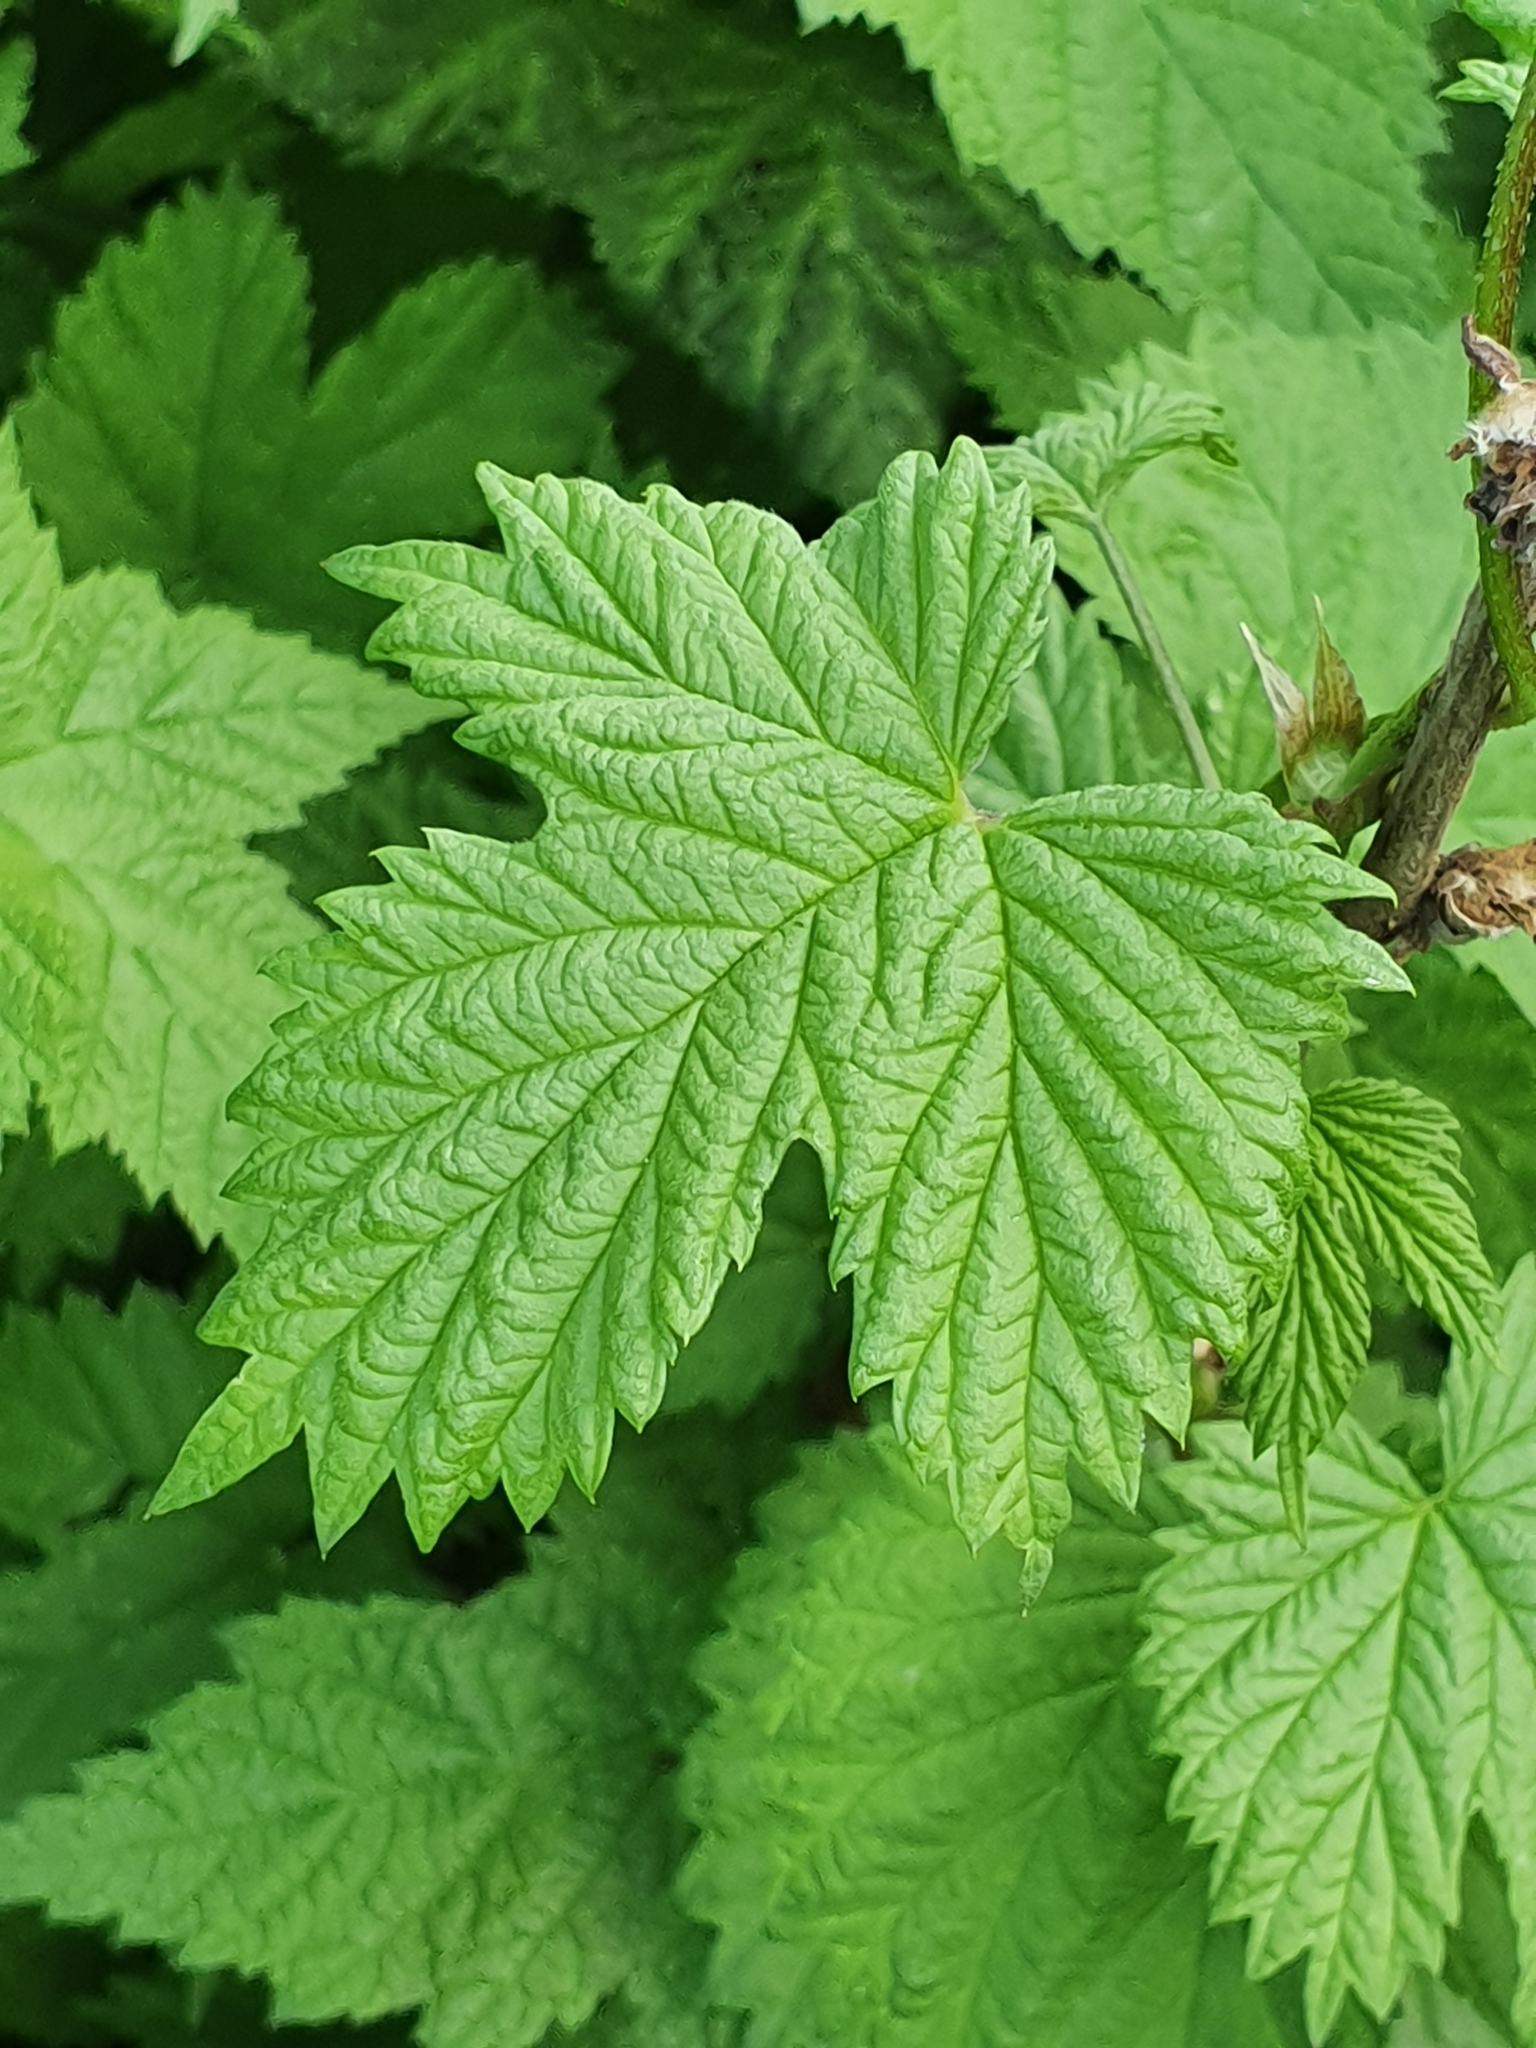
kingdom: Plantae
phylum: Tracheophyta
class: Magnoliopsida
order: Rosales
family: Cannabaceae
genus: Humulus
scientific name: Humulus lupulus
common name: Hop
